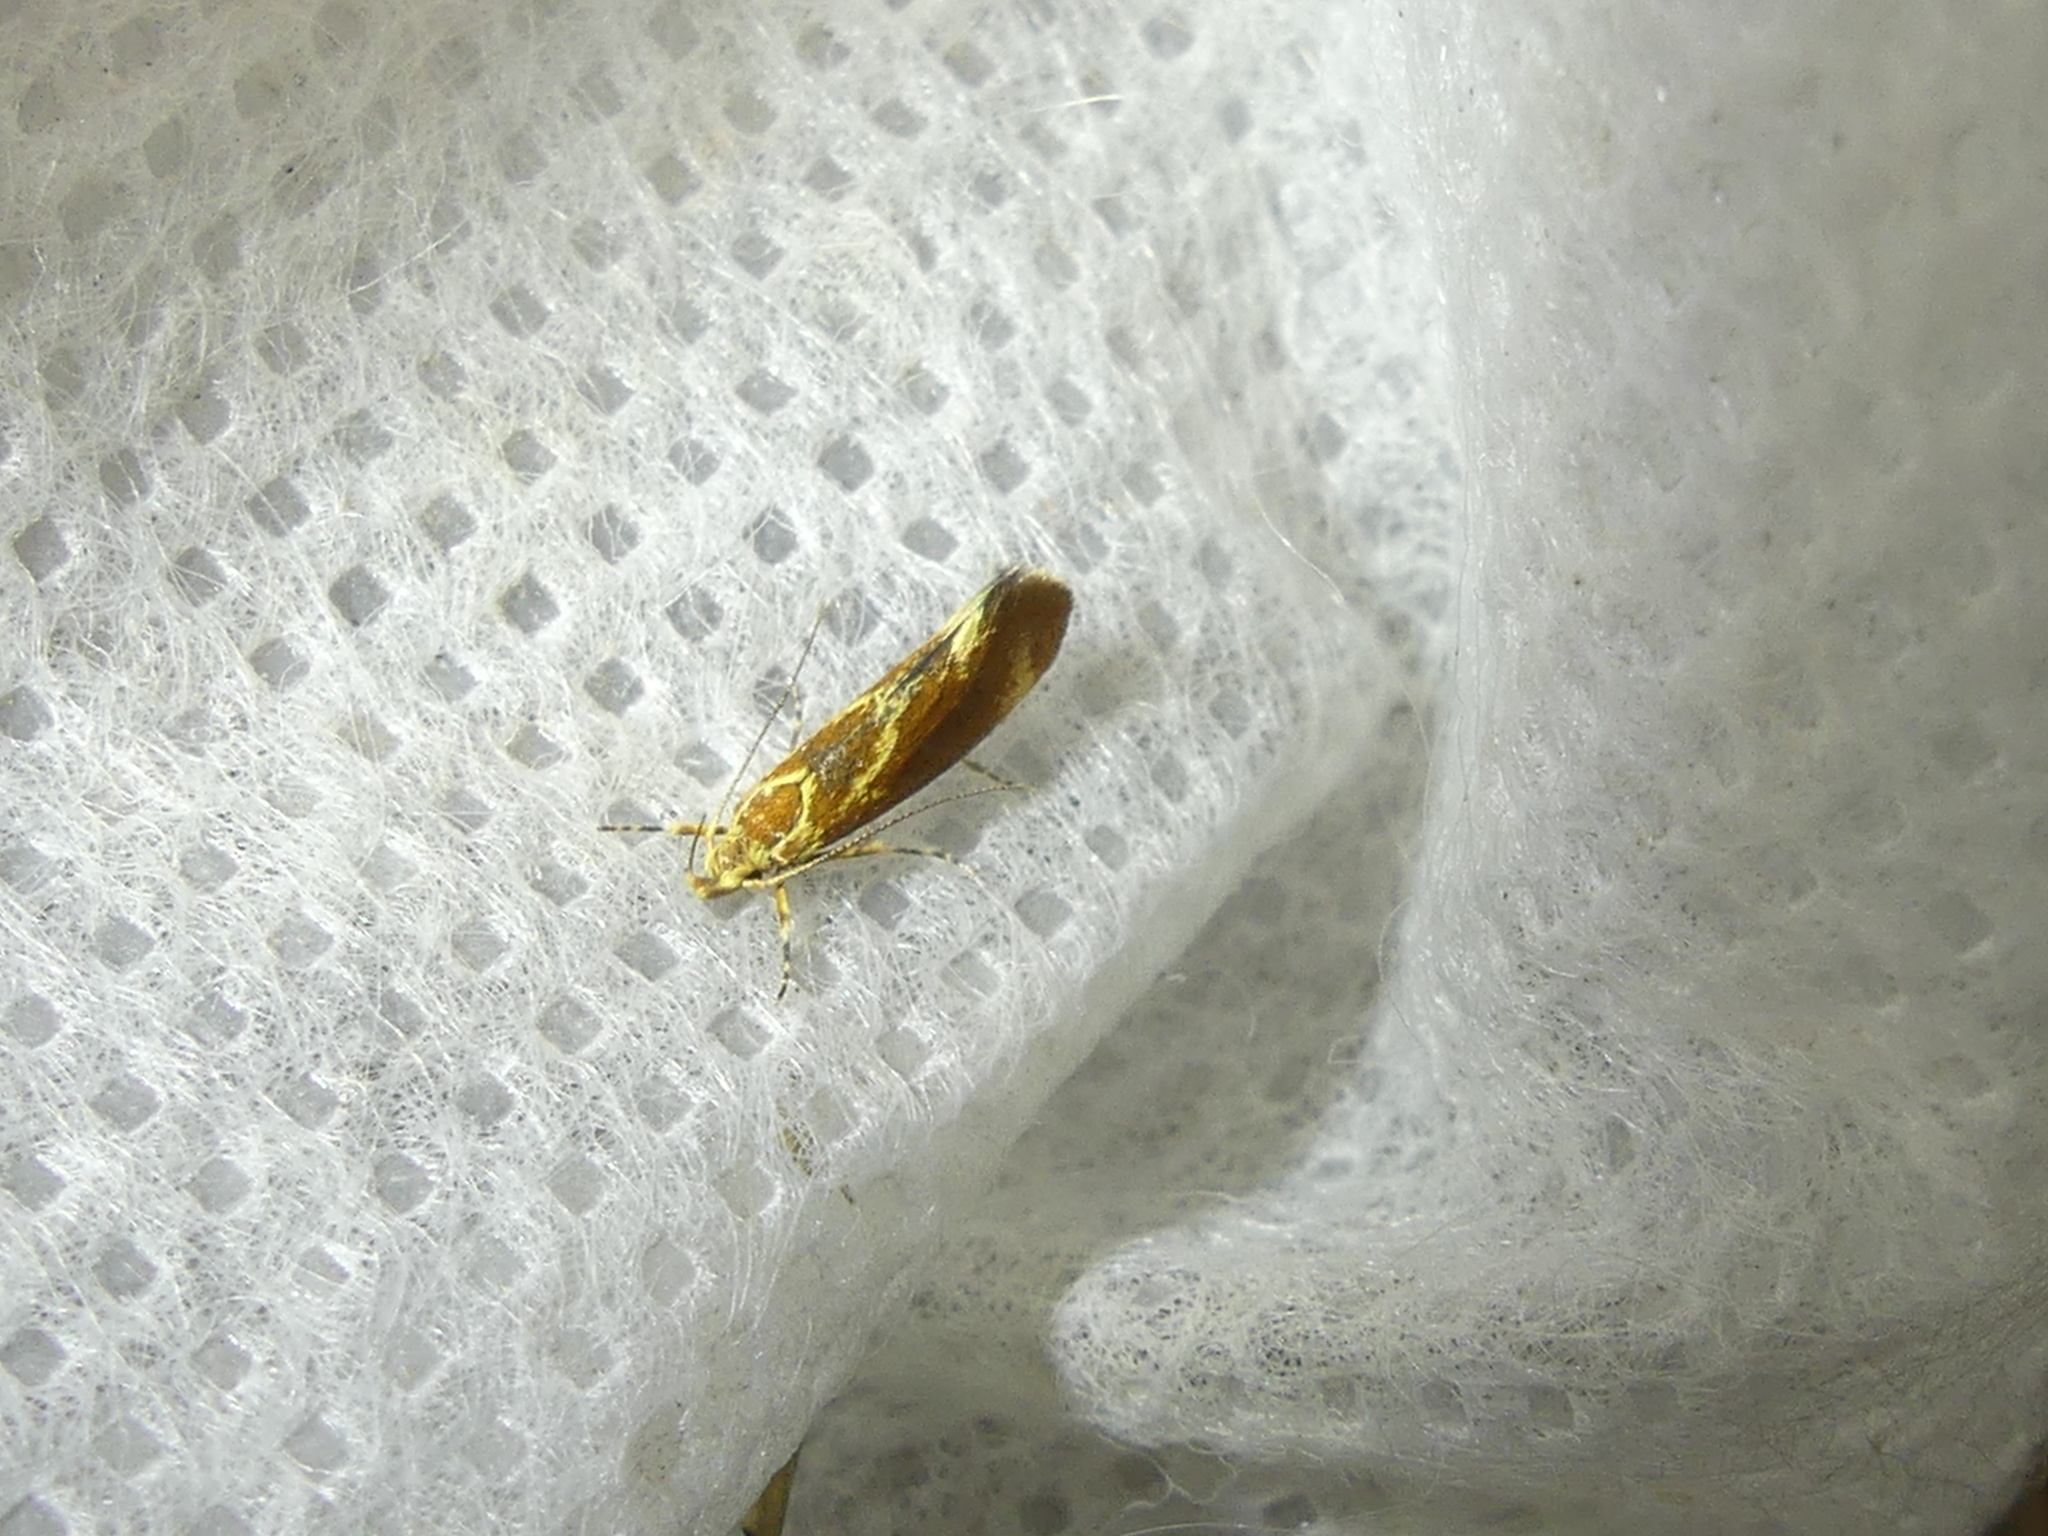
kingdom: Animalia
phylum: Arthropoda
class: Insecta
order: Lepidoptera
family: Oecophoridae
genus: Borkhausenia
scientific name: Borkhausenia italica
